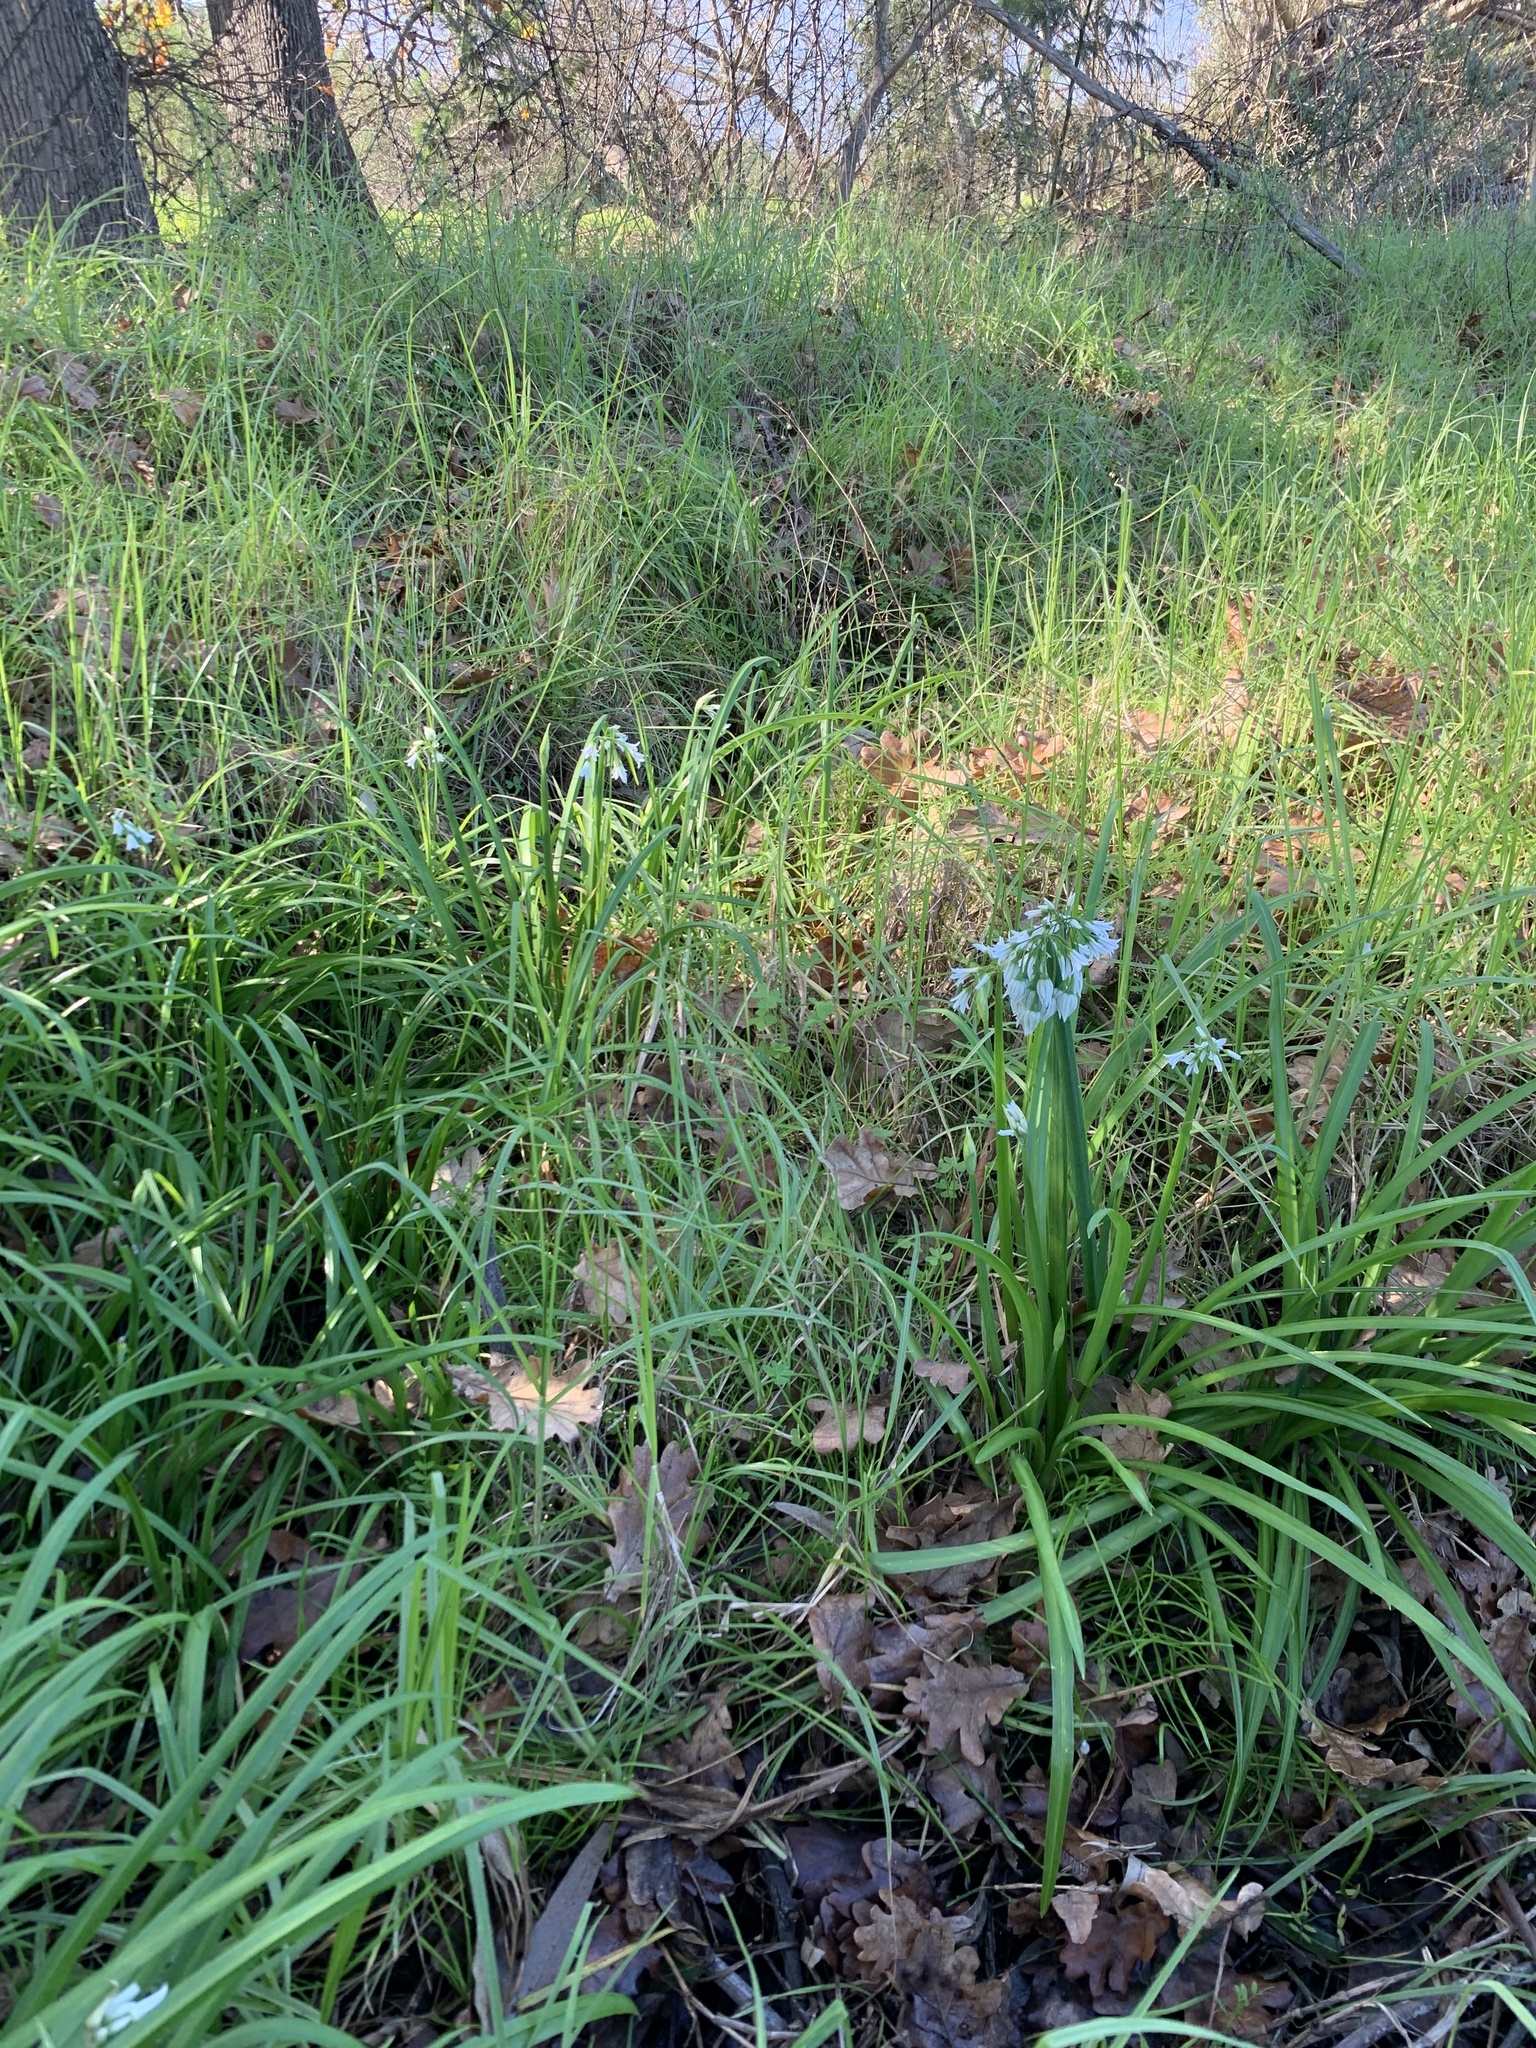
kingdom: Plantae
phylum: Tracheophyta
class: Liliopsida
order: Asparagales
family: Amaryllidaceae
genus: Allium
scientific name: Allium triquetrum
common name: Three-cornered garlic
